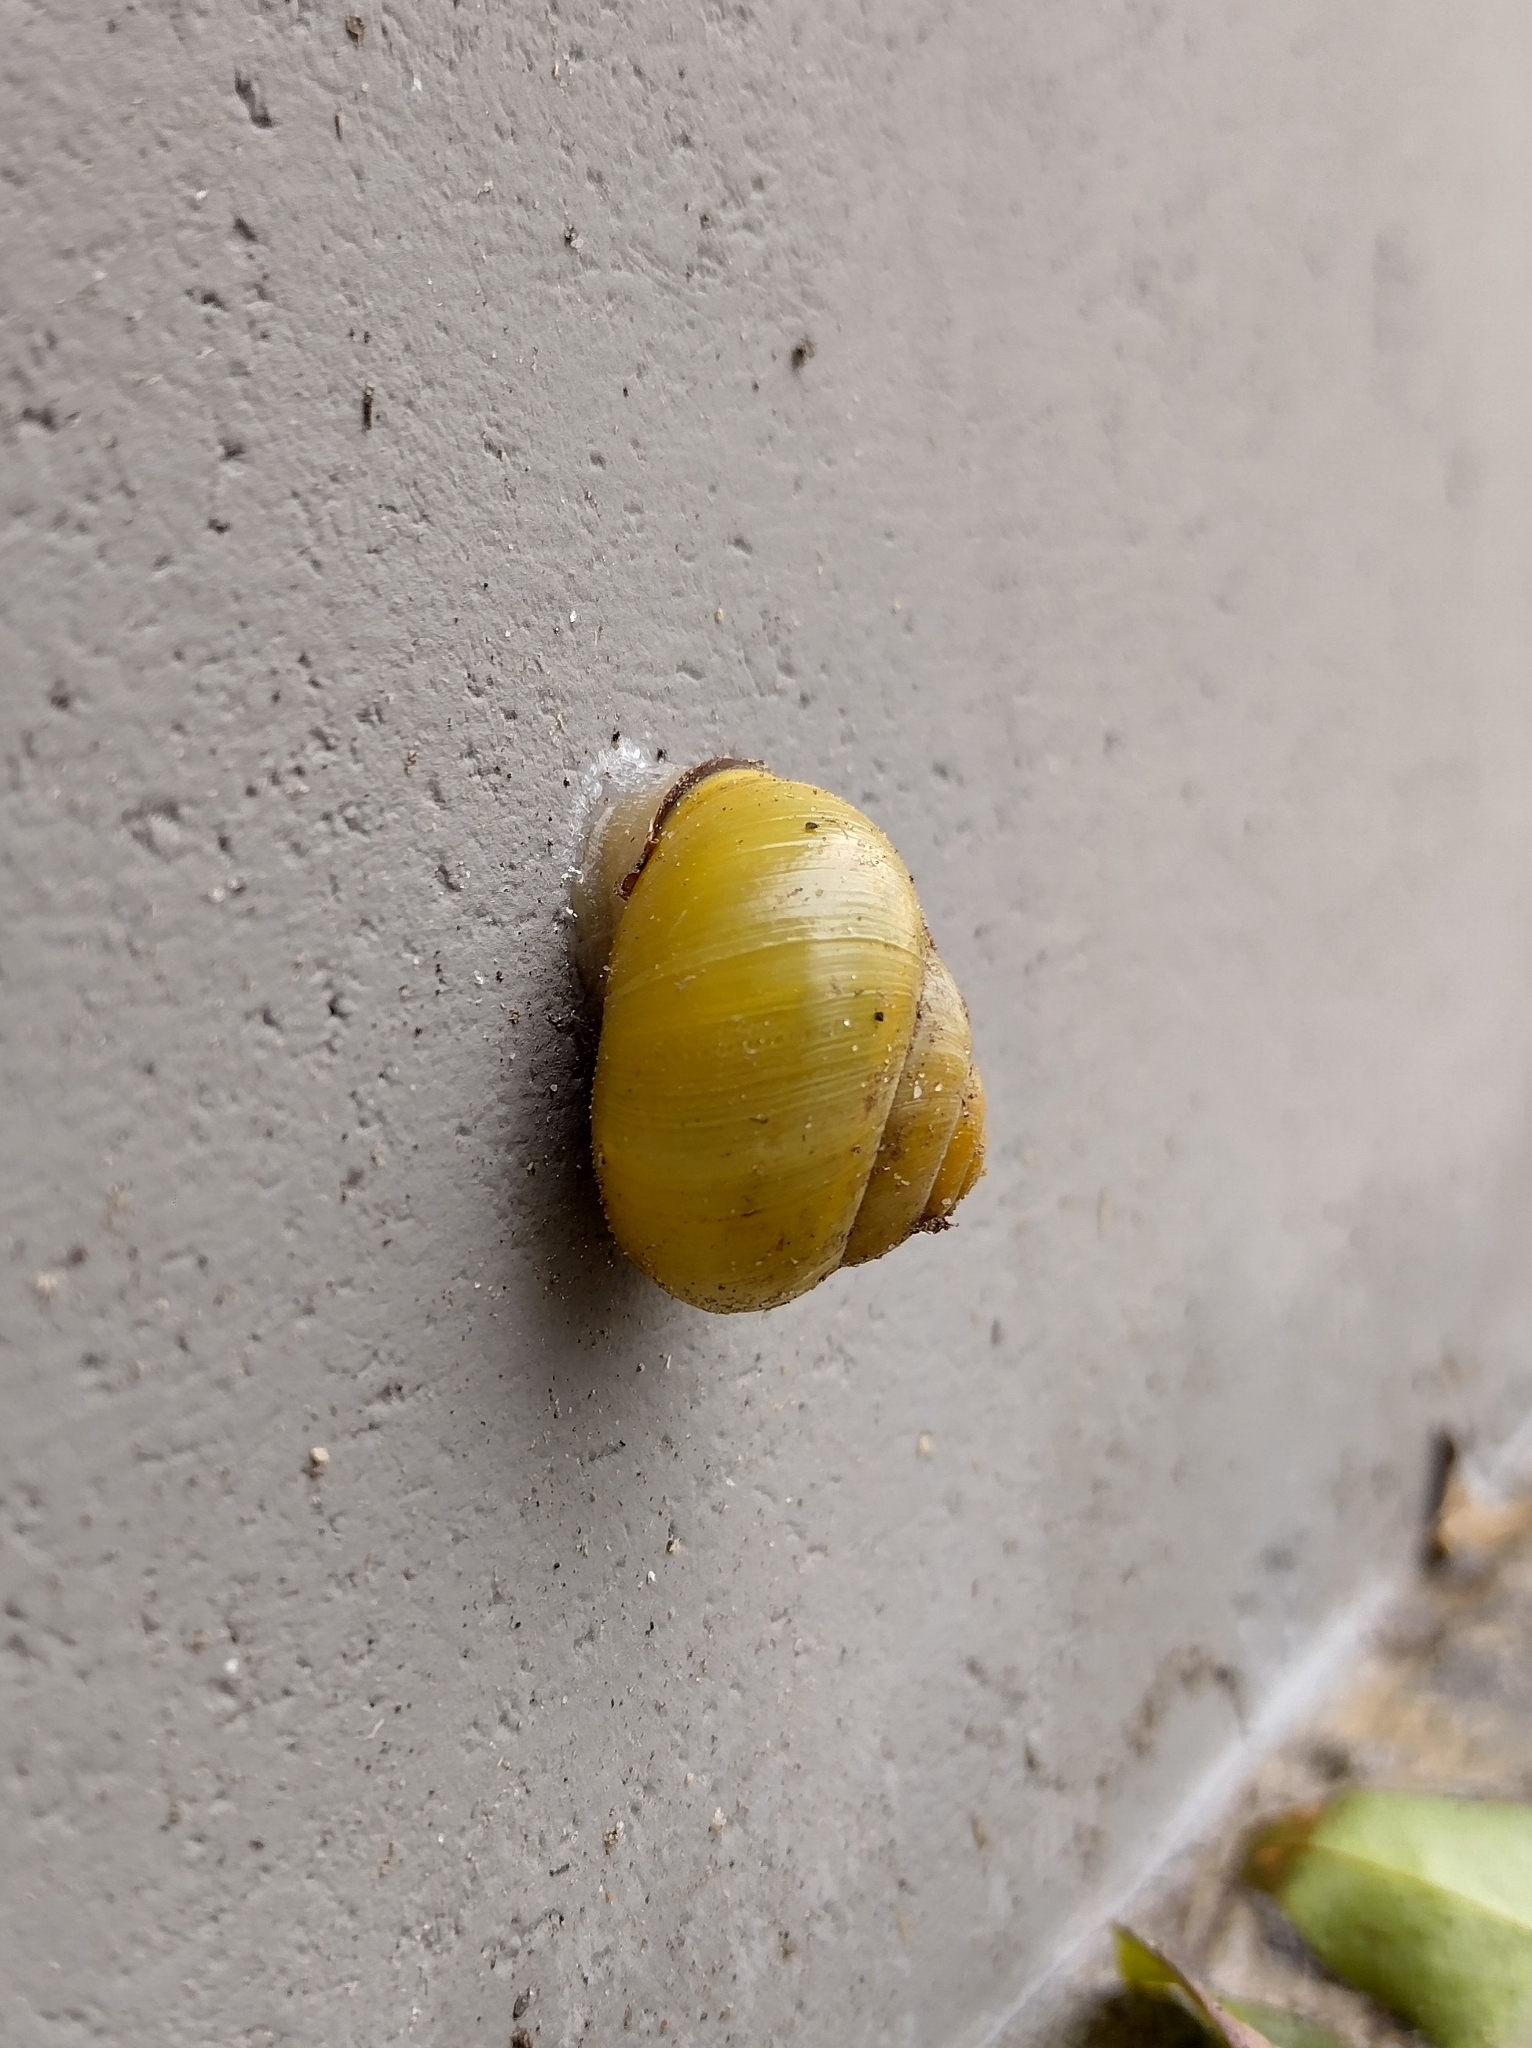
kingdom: Animalia
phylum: Mollusca
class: Gastropoda
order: Stylommatophora
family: Helicidae
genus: Cepaea
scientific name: Cepaea nemoralis
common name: Grovesnail
